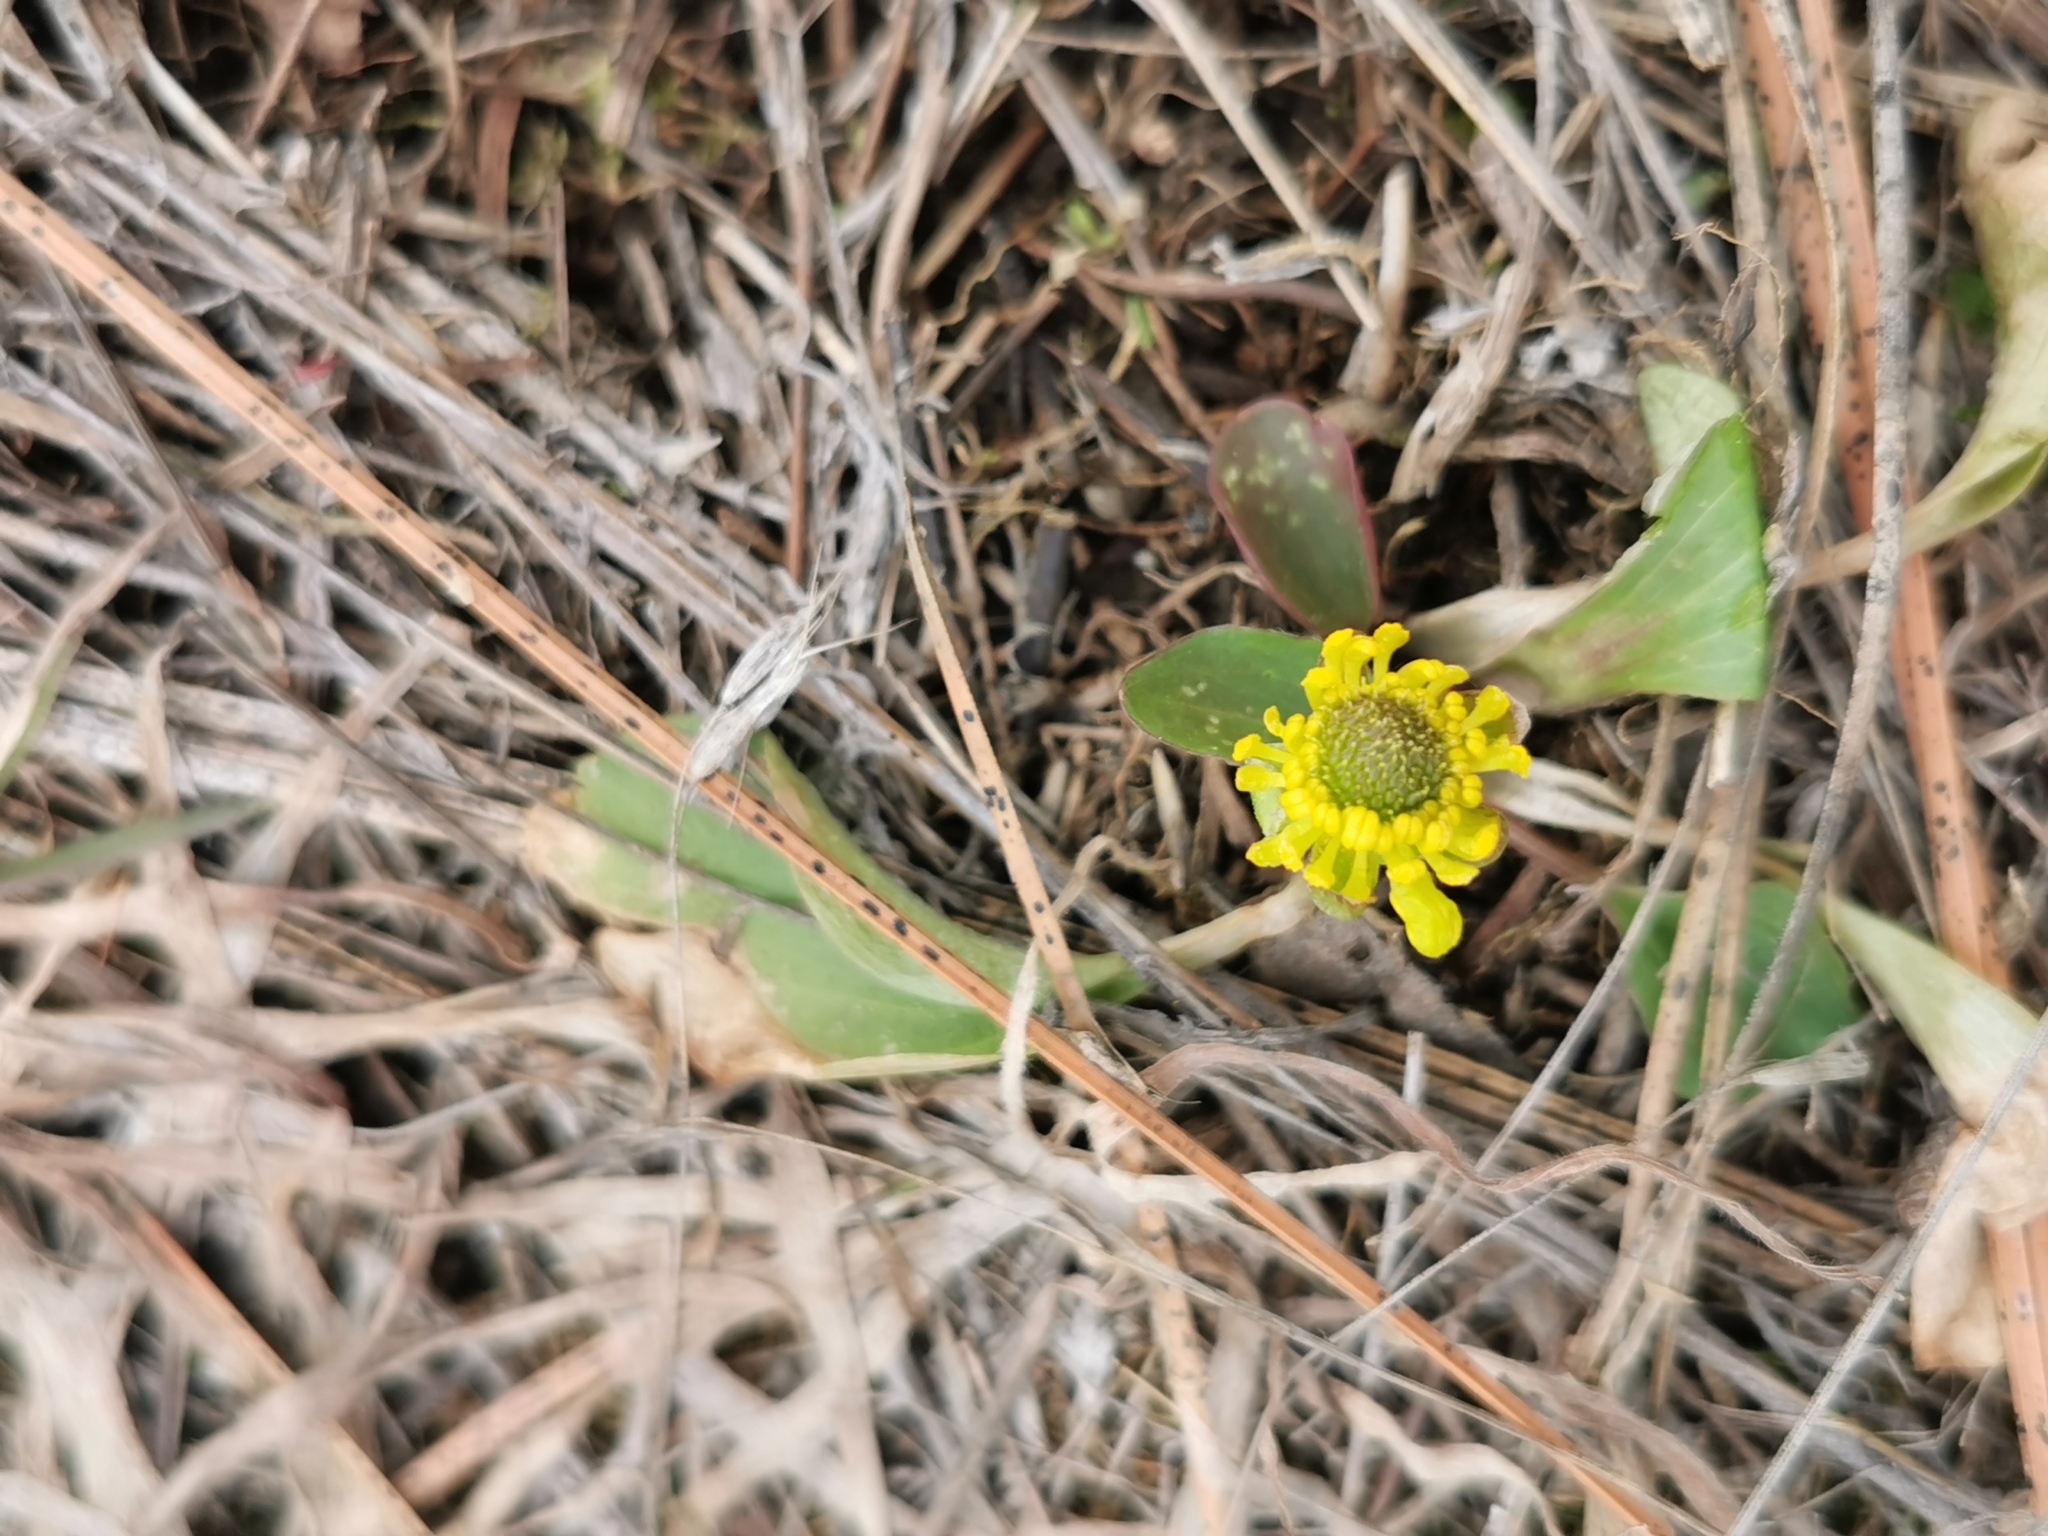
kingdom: Plantae
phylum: Tracheophyta
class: Magnoliopsida
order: Ranunculales
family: Ranunculaceae
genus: Ranunculus
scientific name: Ranunculus glaberrimus
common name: Sagebrush buttercup
